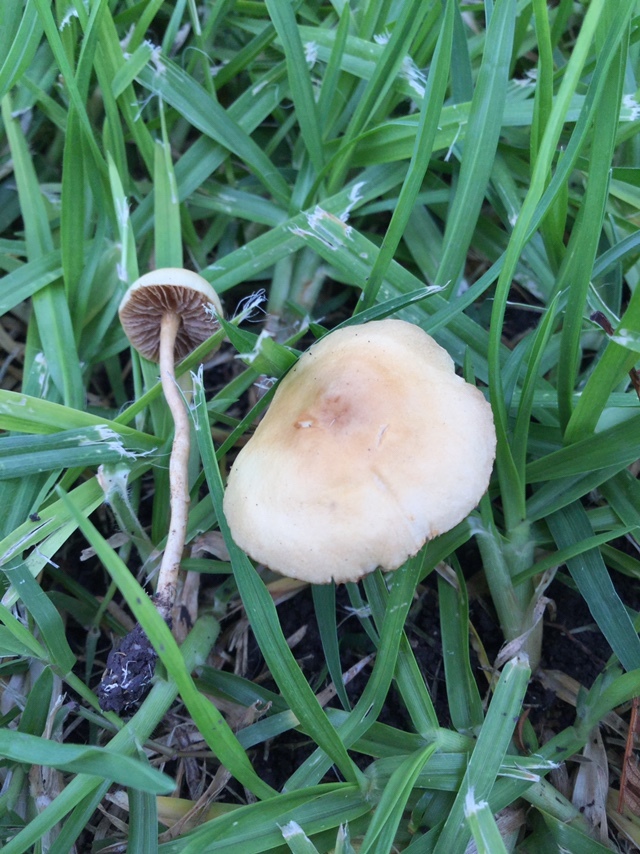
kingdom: Fungi
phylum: Basidiomycota
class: Agaricomycetes
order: Agaricales
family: Strophariaceae
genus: Agrocybe
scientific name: Agrocybe pediades
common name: Common fieldcap
